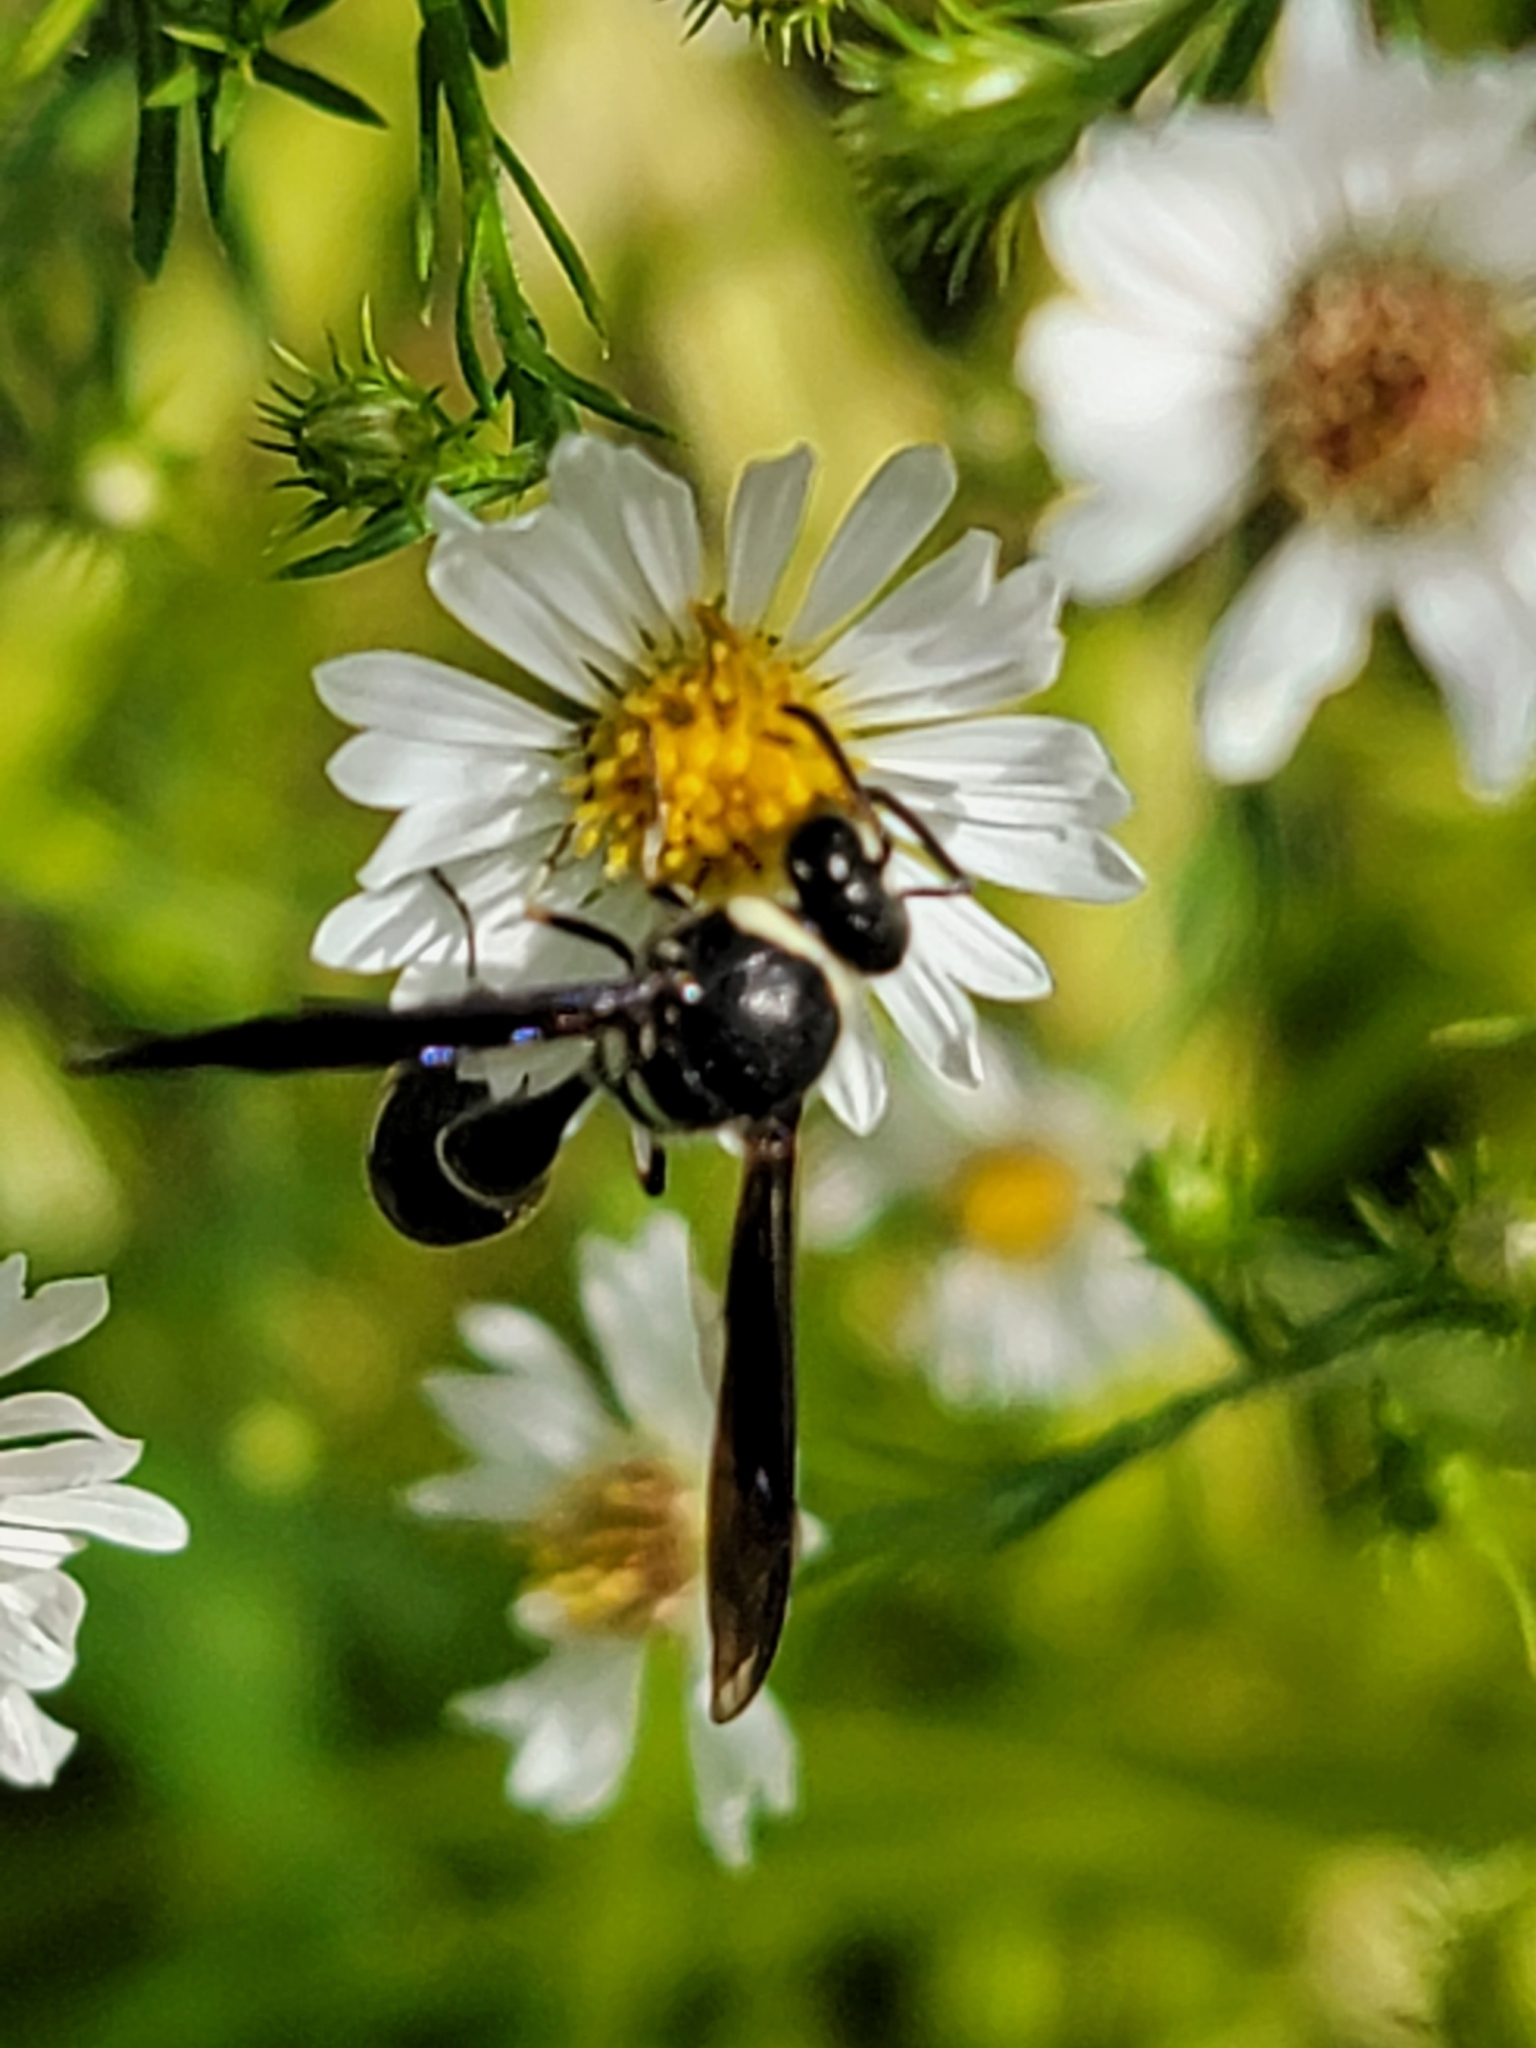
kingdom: Animalia
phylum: Arthropoda
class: Insecta
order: Hymenoptera
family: Vespidae
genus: Eumenes
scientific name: Eumenes fraternus
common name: Fraternal potter wasp
